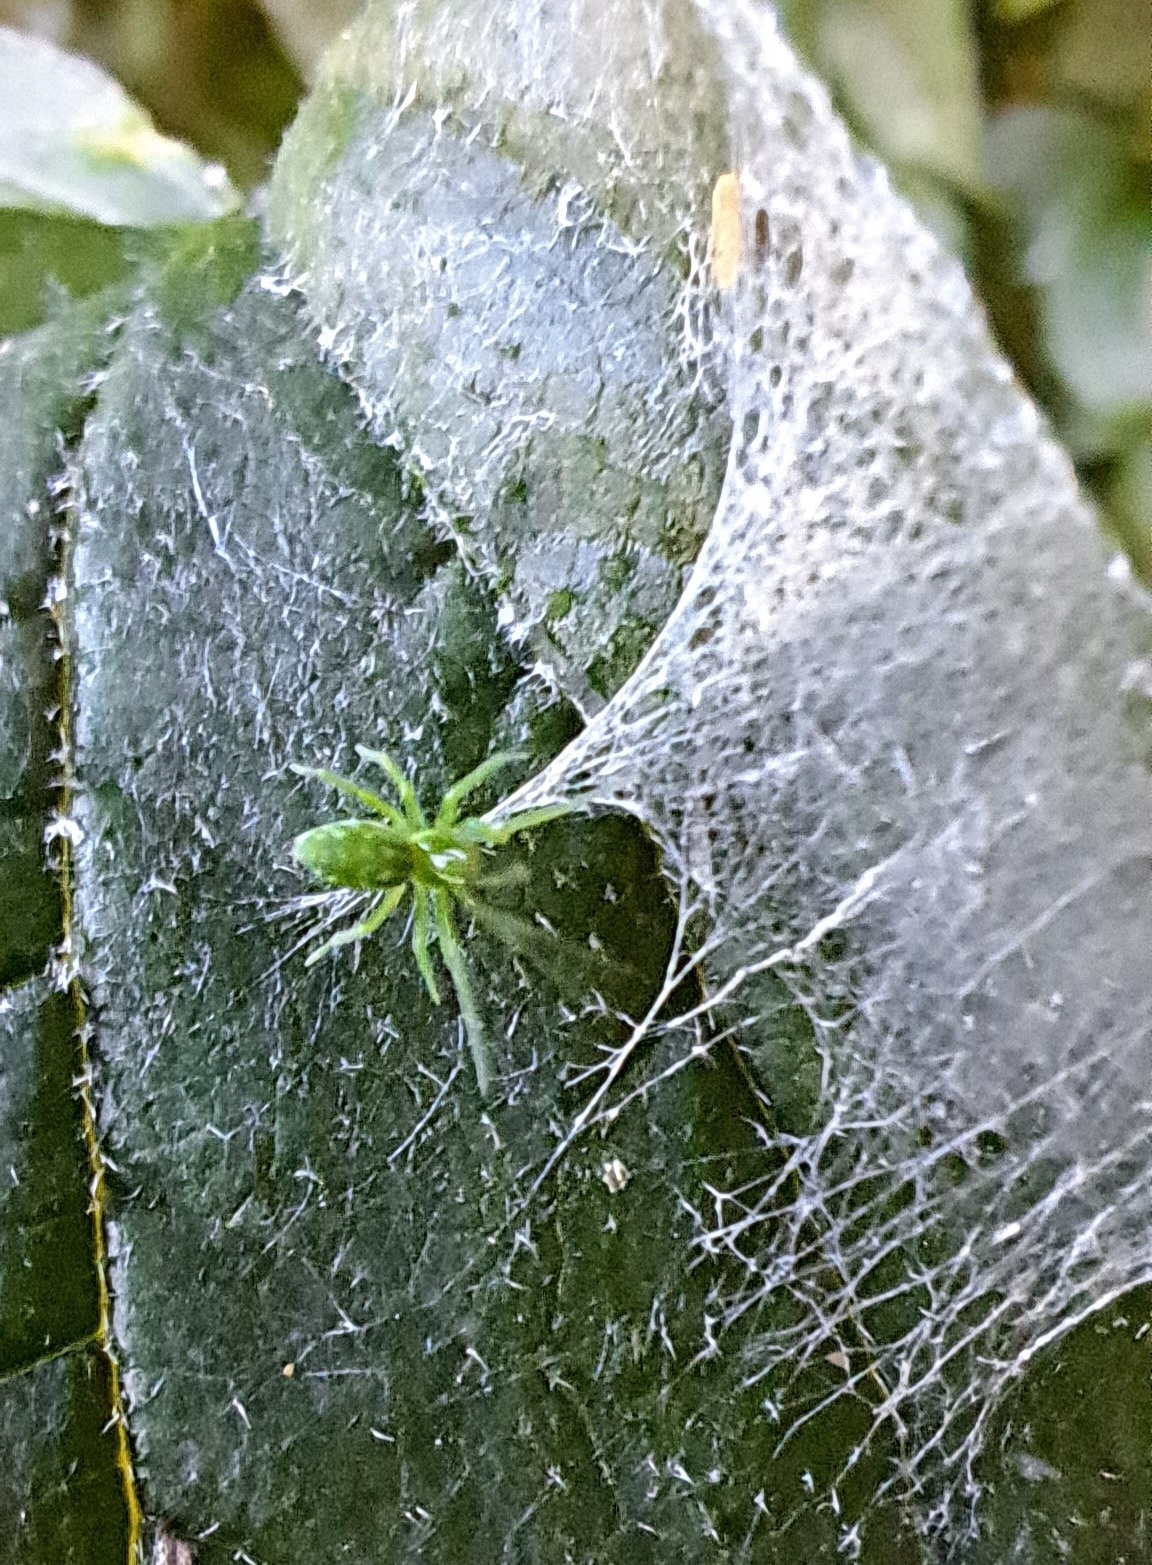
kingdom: Animalia
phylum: Arthropoda
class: Arachnida
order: Araneae
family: Dictynidae
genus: Nigma
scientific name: Nigma walckenaeri
